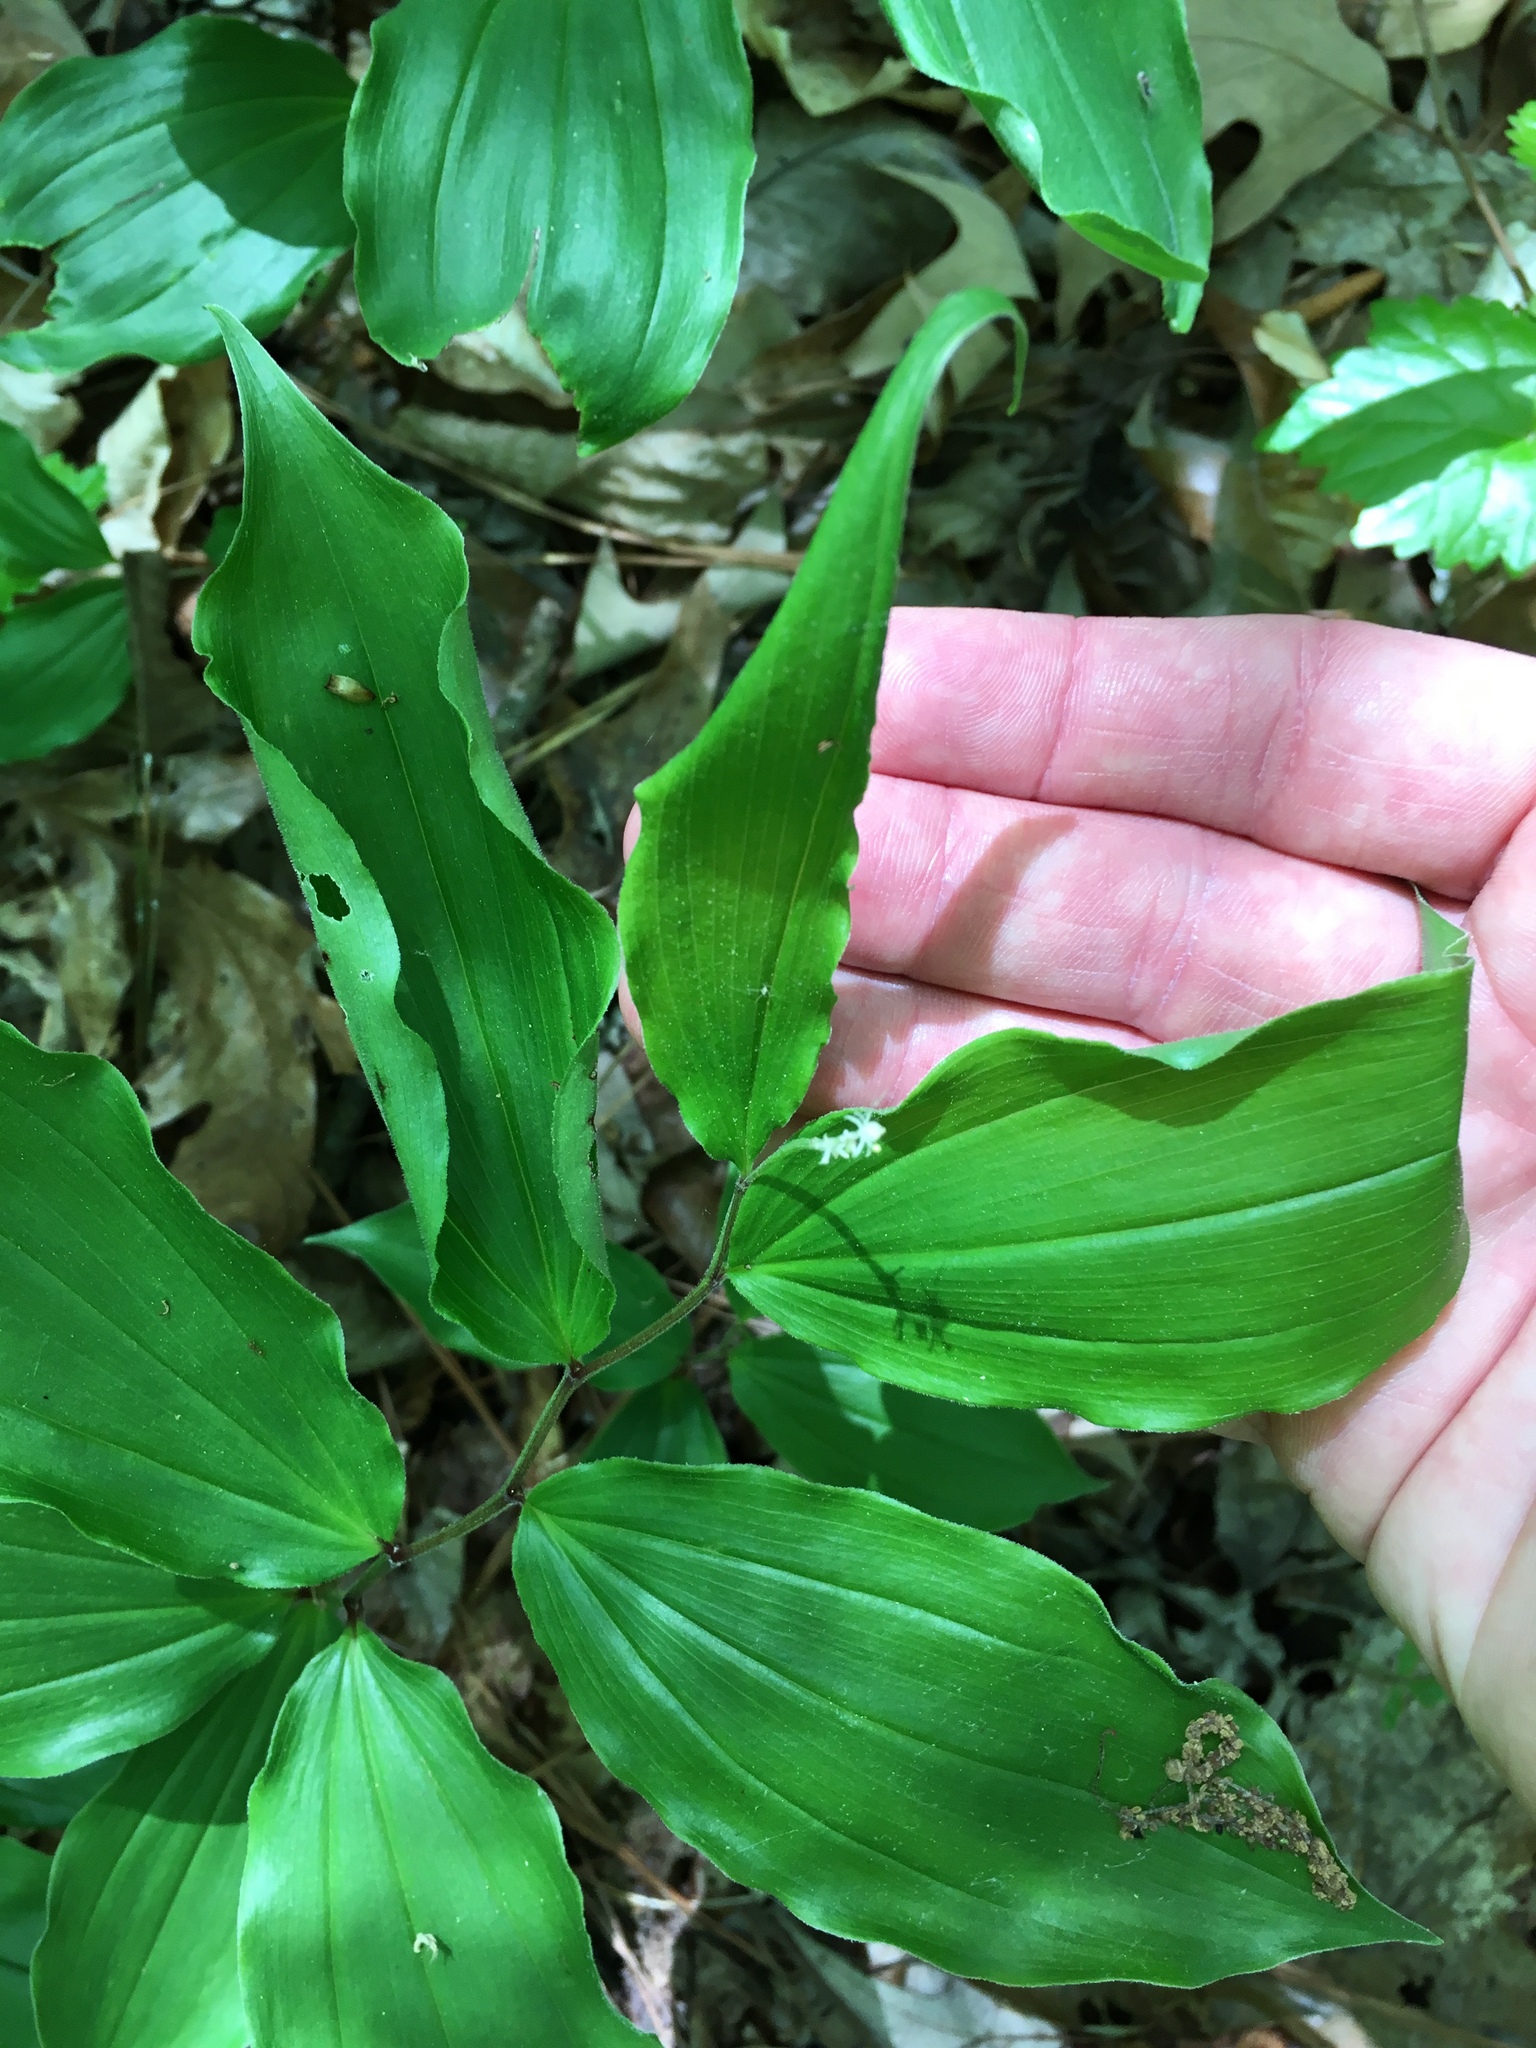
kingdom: Plantae
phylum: Tracheophyta
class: Liliopsida
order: Asparagales
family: Asparagaceae
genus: Maianthemum
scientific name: Maianthemum racemosum
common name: False spikenard
